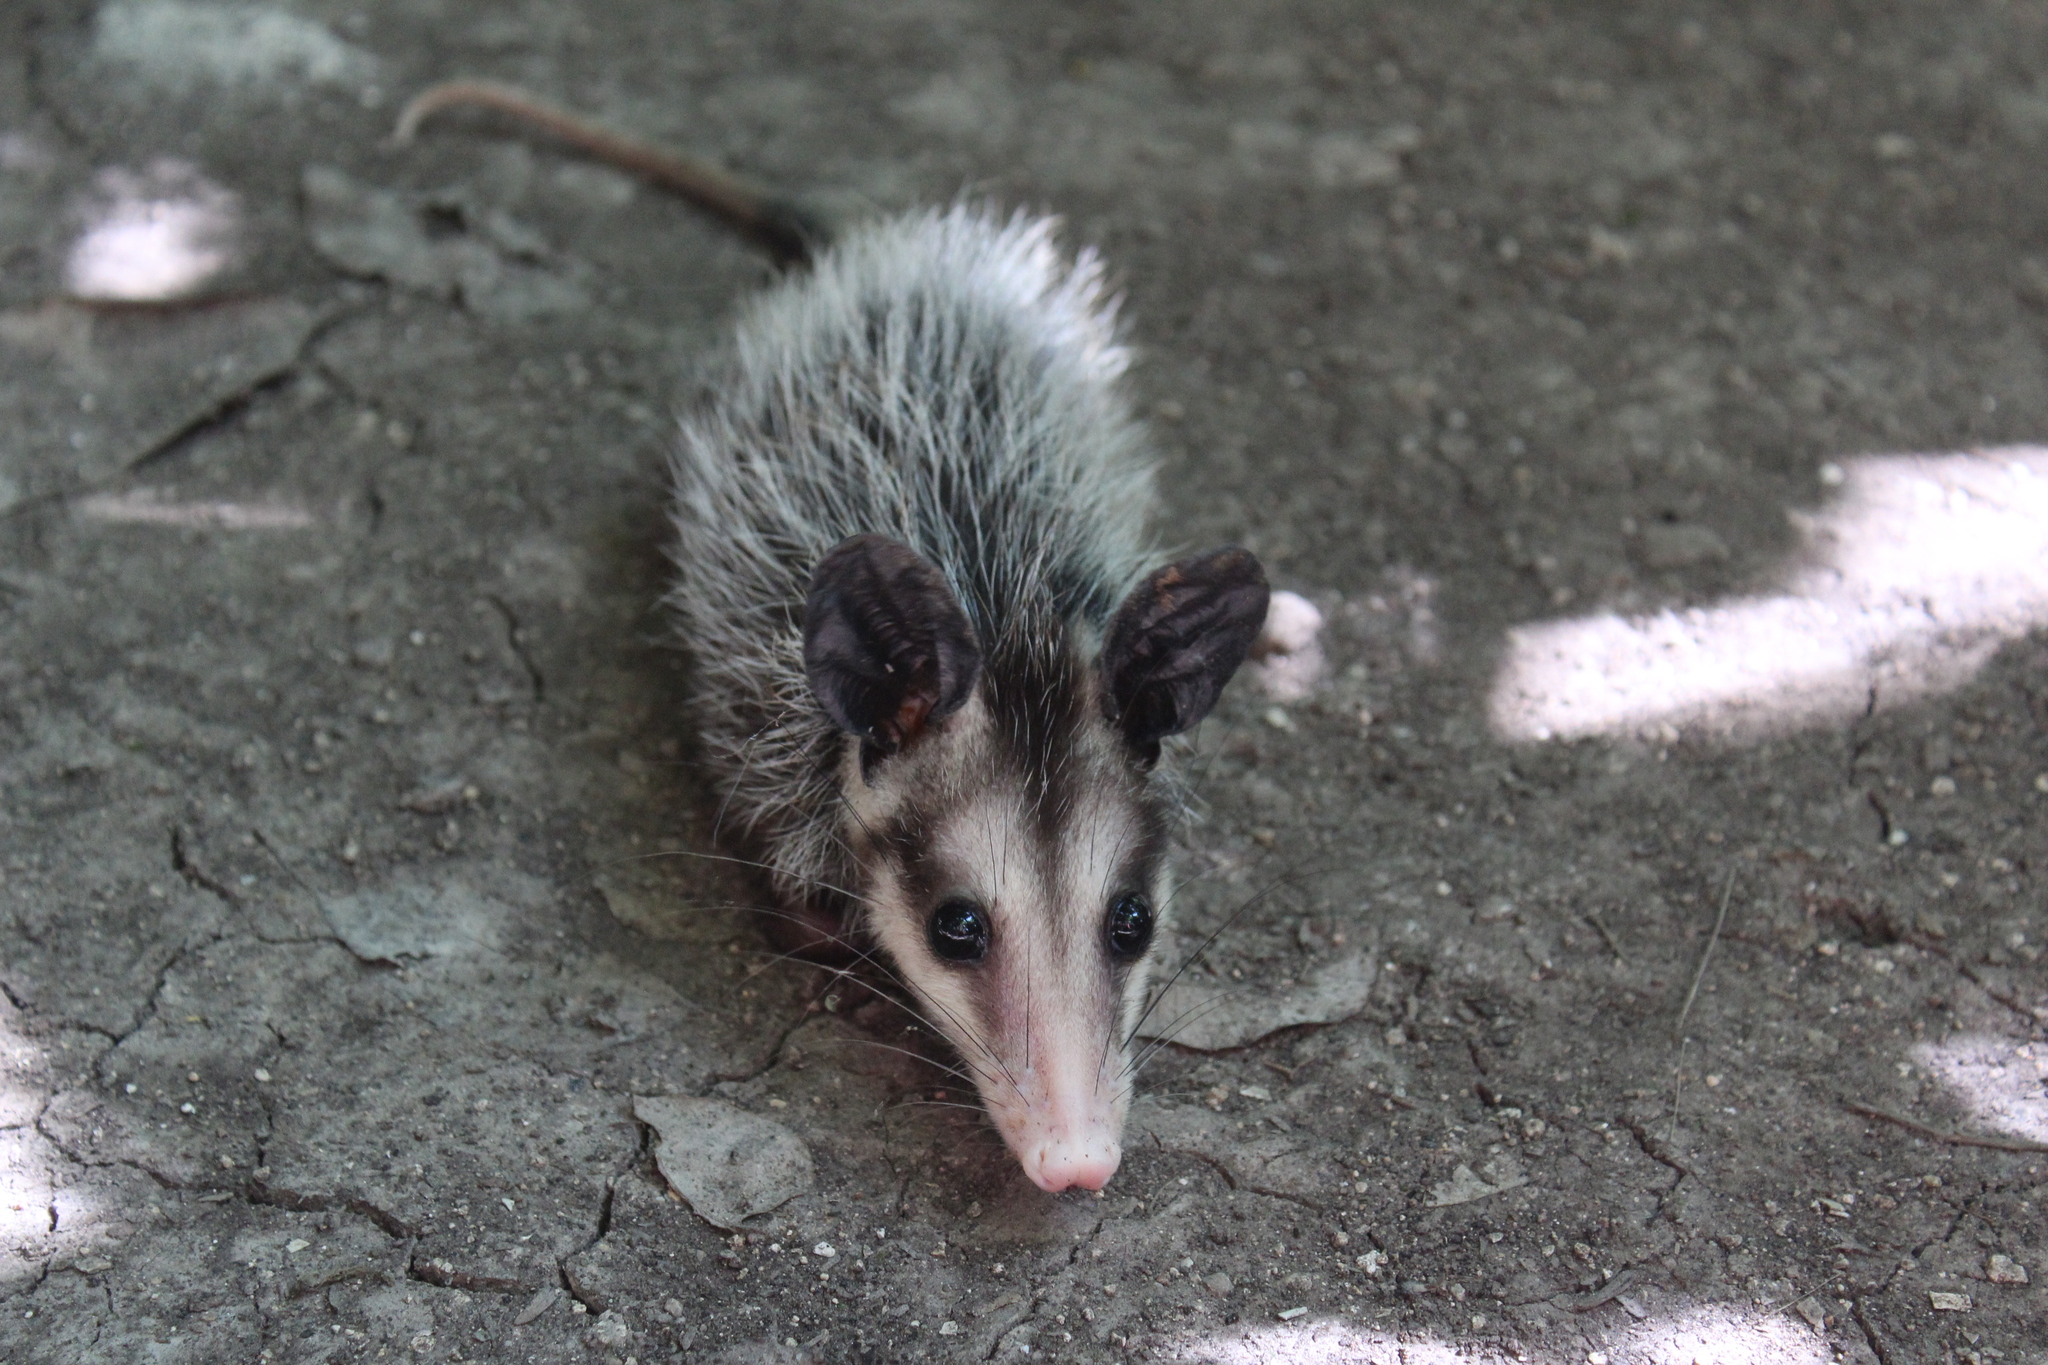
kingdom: Animalia
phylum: Chordata
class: Mammalia
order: Didelphimorphia
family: Didelphidae
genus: Didelphis
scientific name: Didelphis marsupialis
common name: Common opossum
